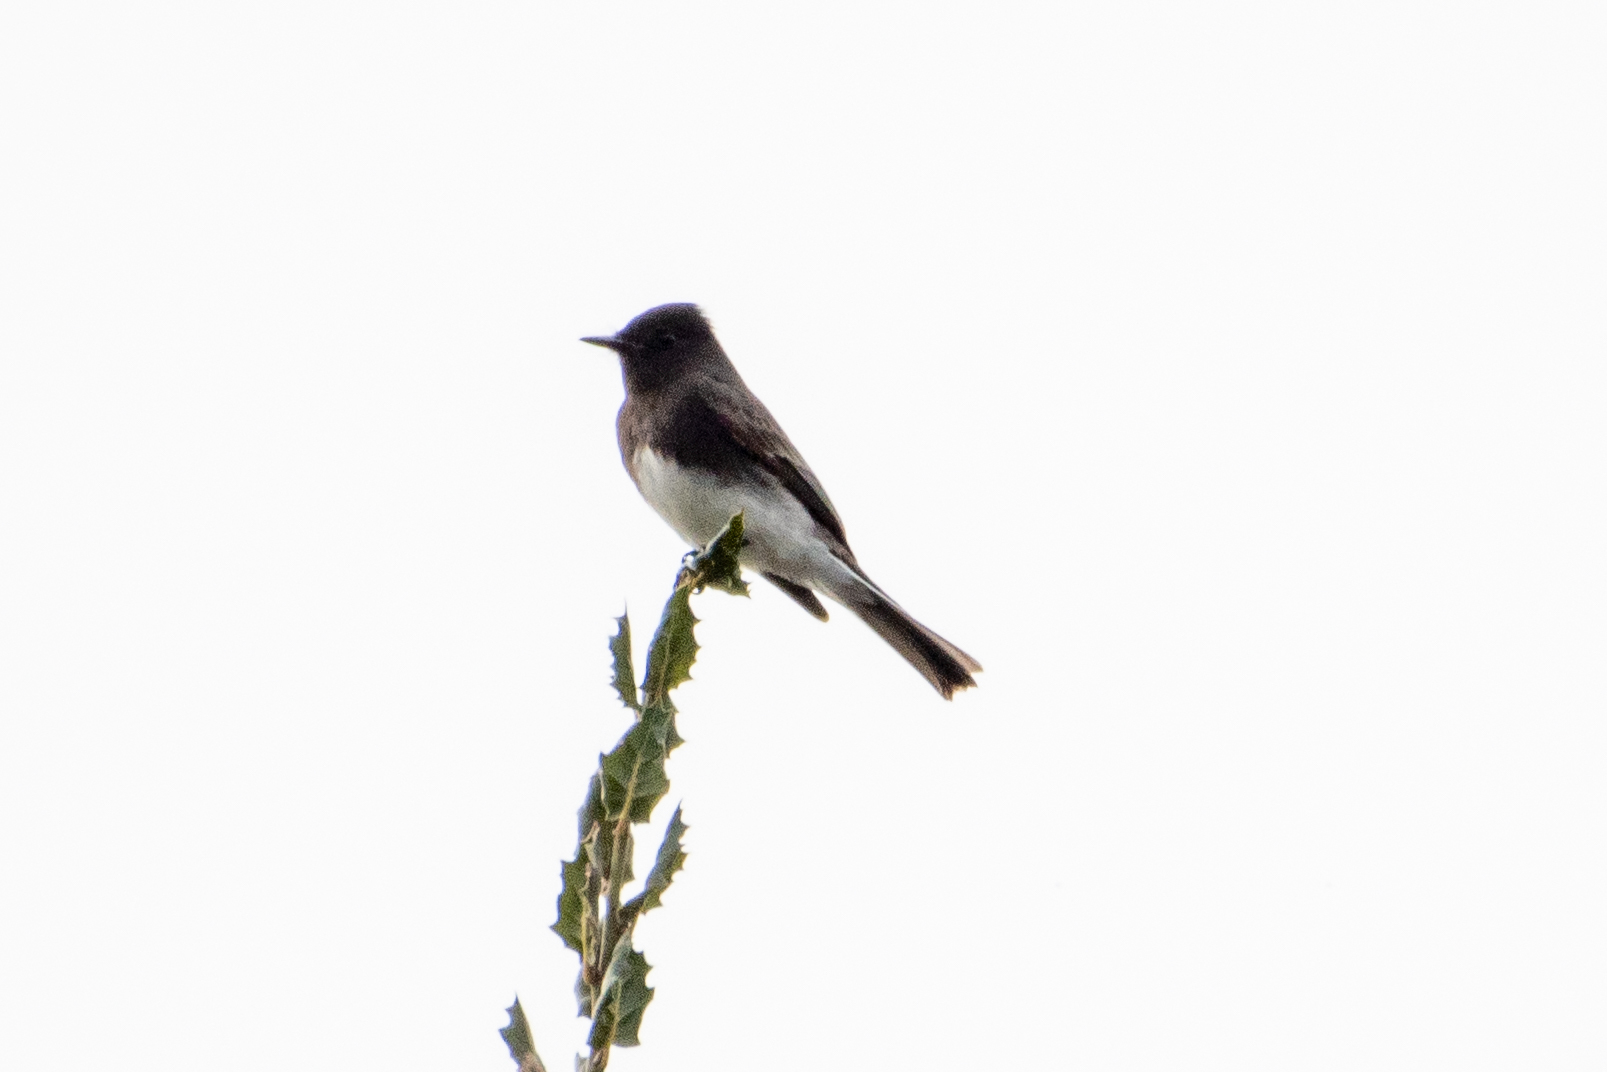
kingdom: Animalia
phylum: Chordata
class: Aves
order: Passeriformes
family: Tyrannidae
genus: Sayornis
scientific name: Sayornis nigricans
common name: Black phoebe
